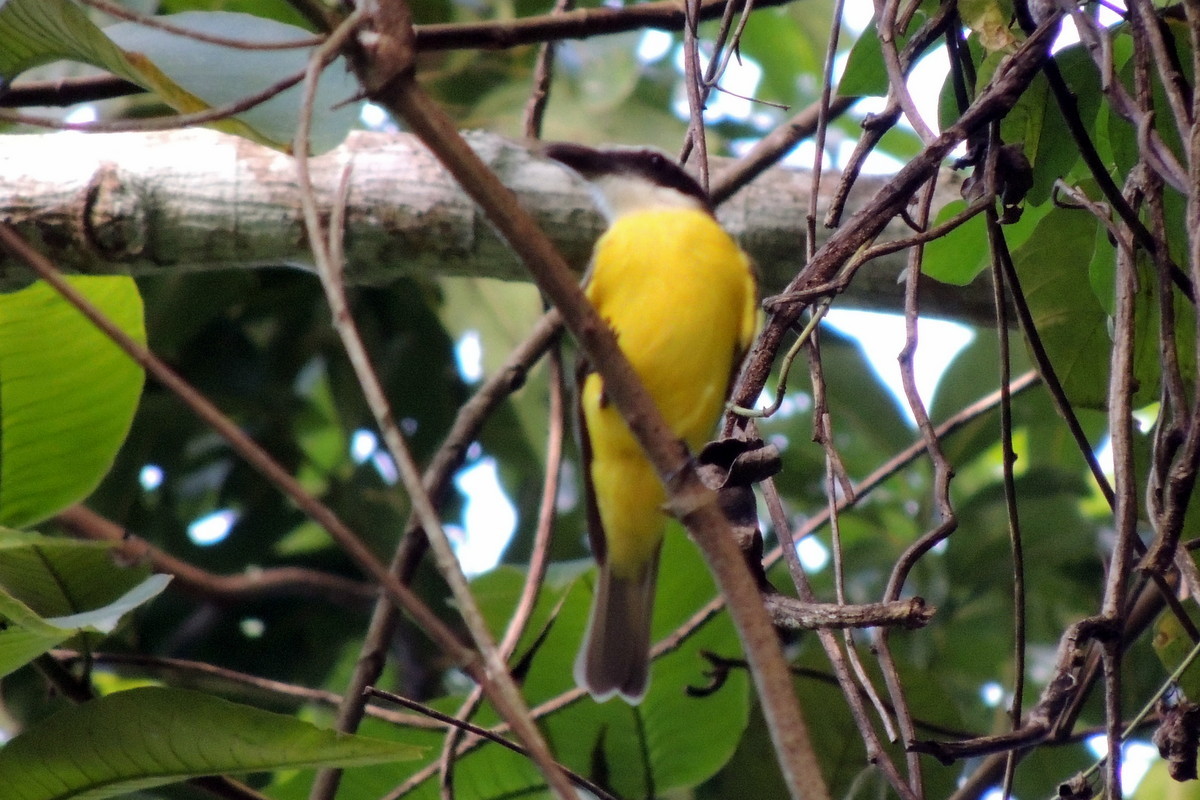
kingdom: Animalia
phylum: Chordata
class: Aves
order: Passeriformes
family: Tyrannidae
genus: Pitangus
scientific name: Pitangus sulphuratus
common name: Great kiskadee
